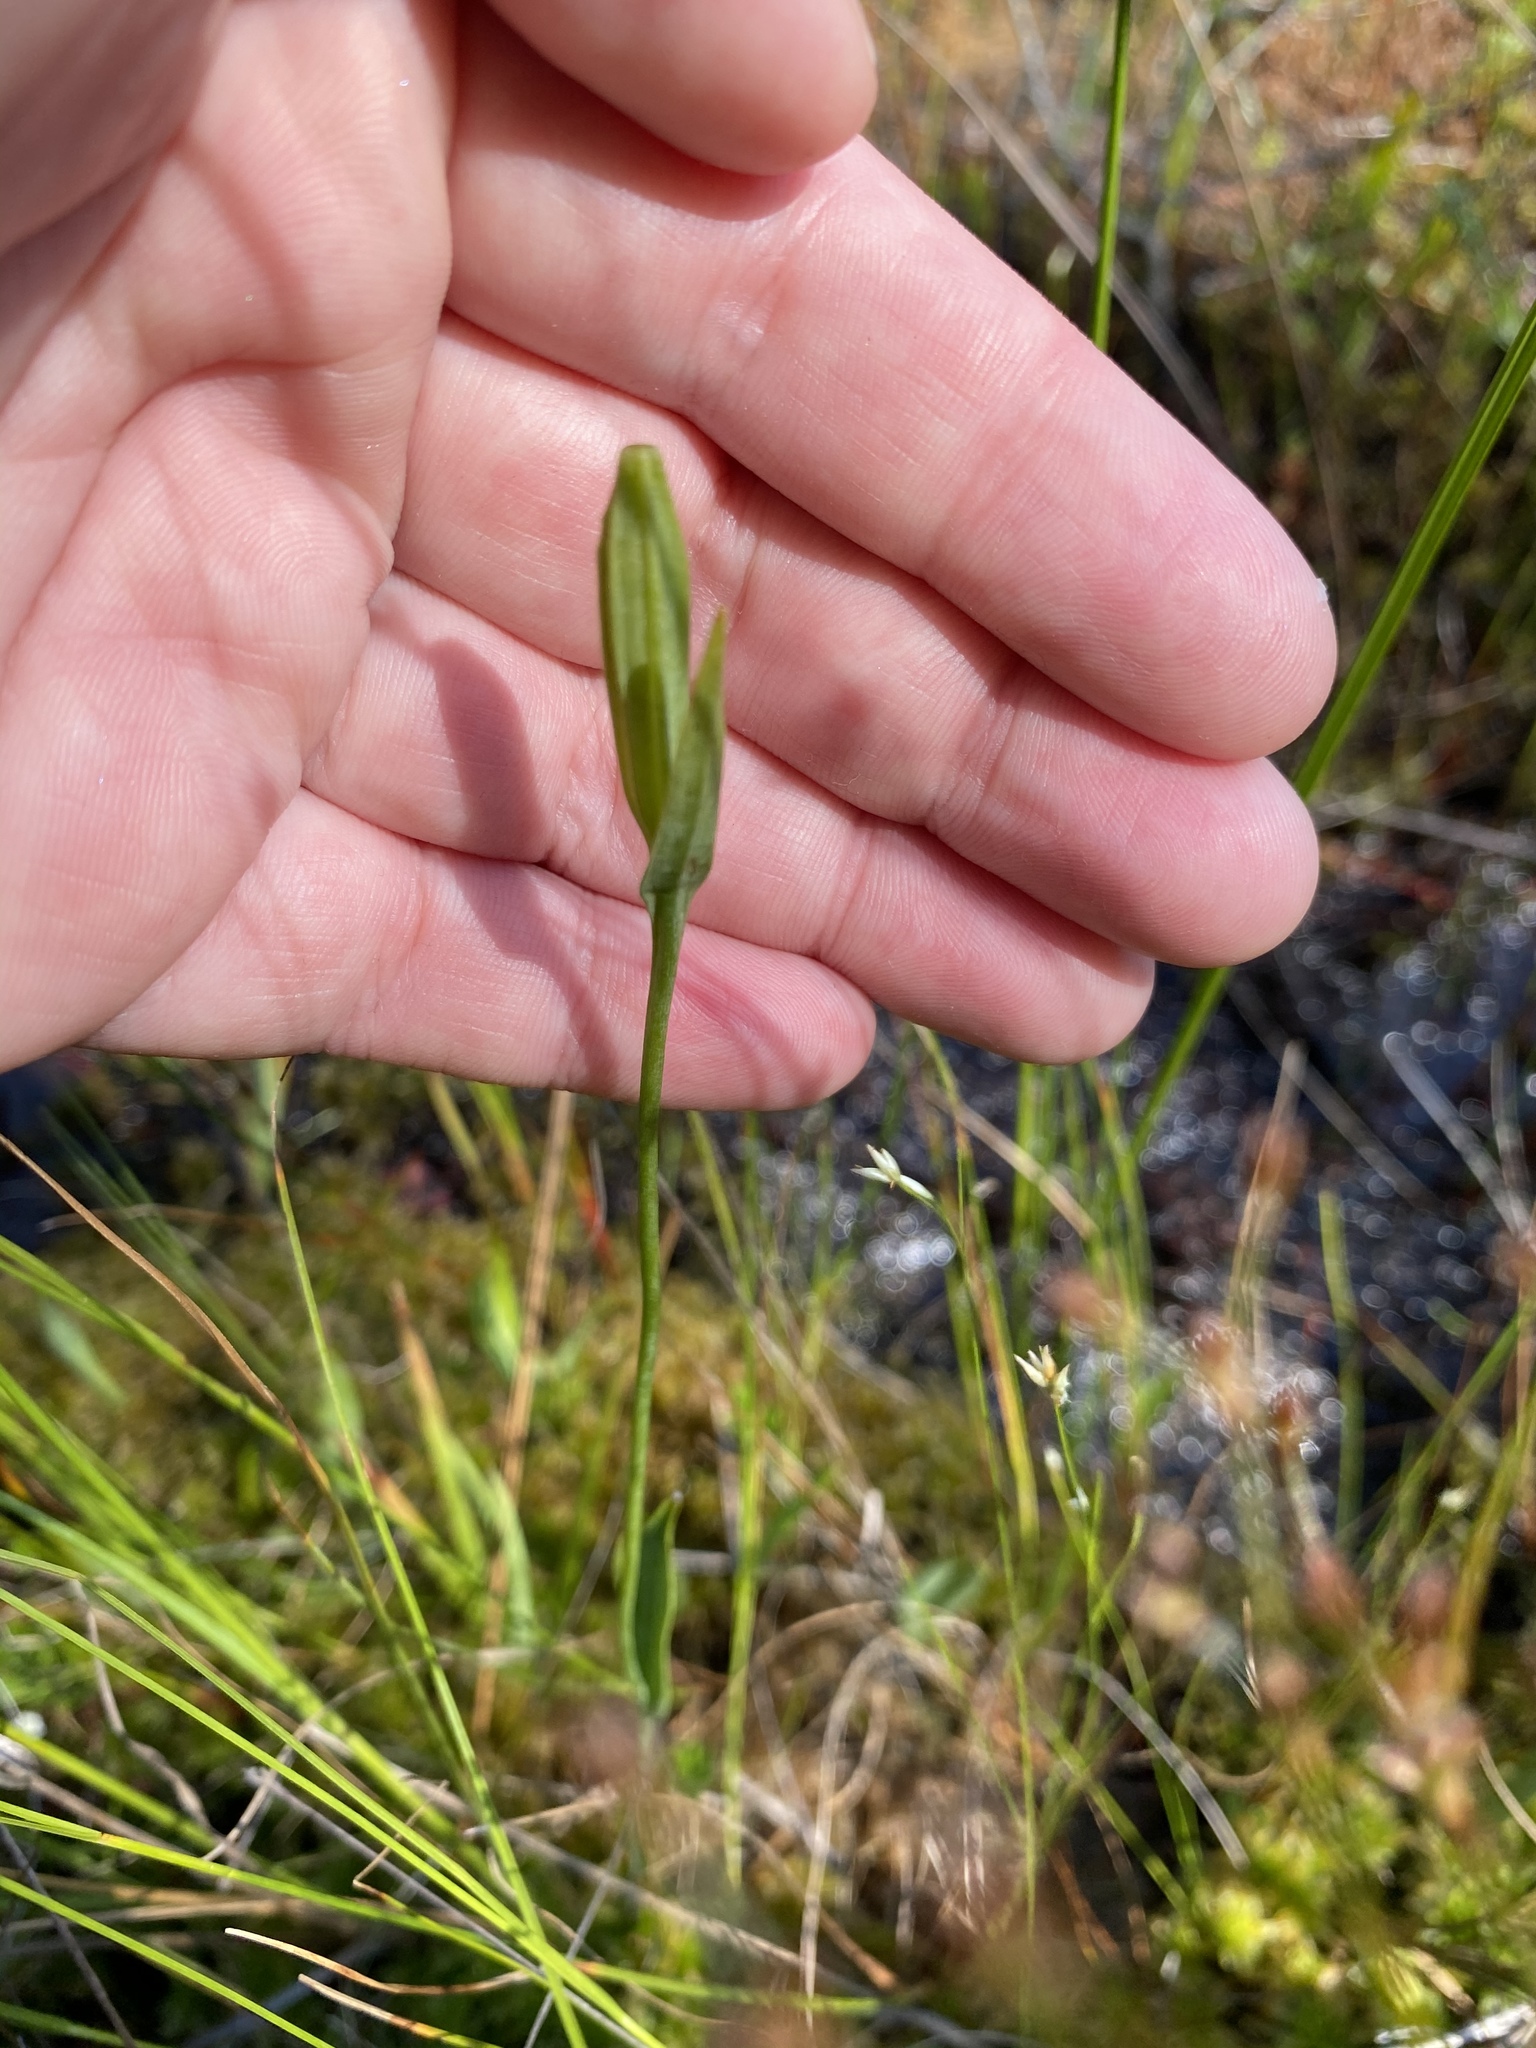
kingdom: Plantae
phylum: Tracheophyta
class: Liliopsida
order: Asparagales
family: Orchidaceae
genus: Pogonia
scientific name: Pogonia ophioglossoides
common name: Rose pogonia
